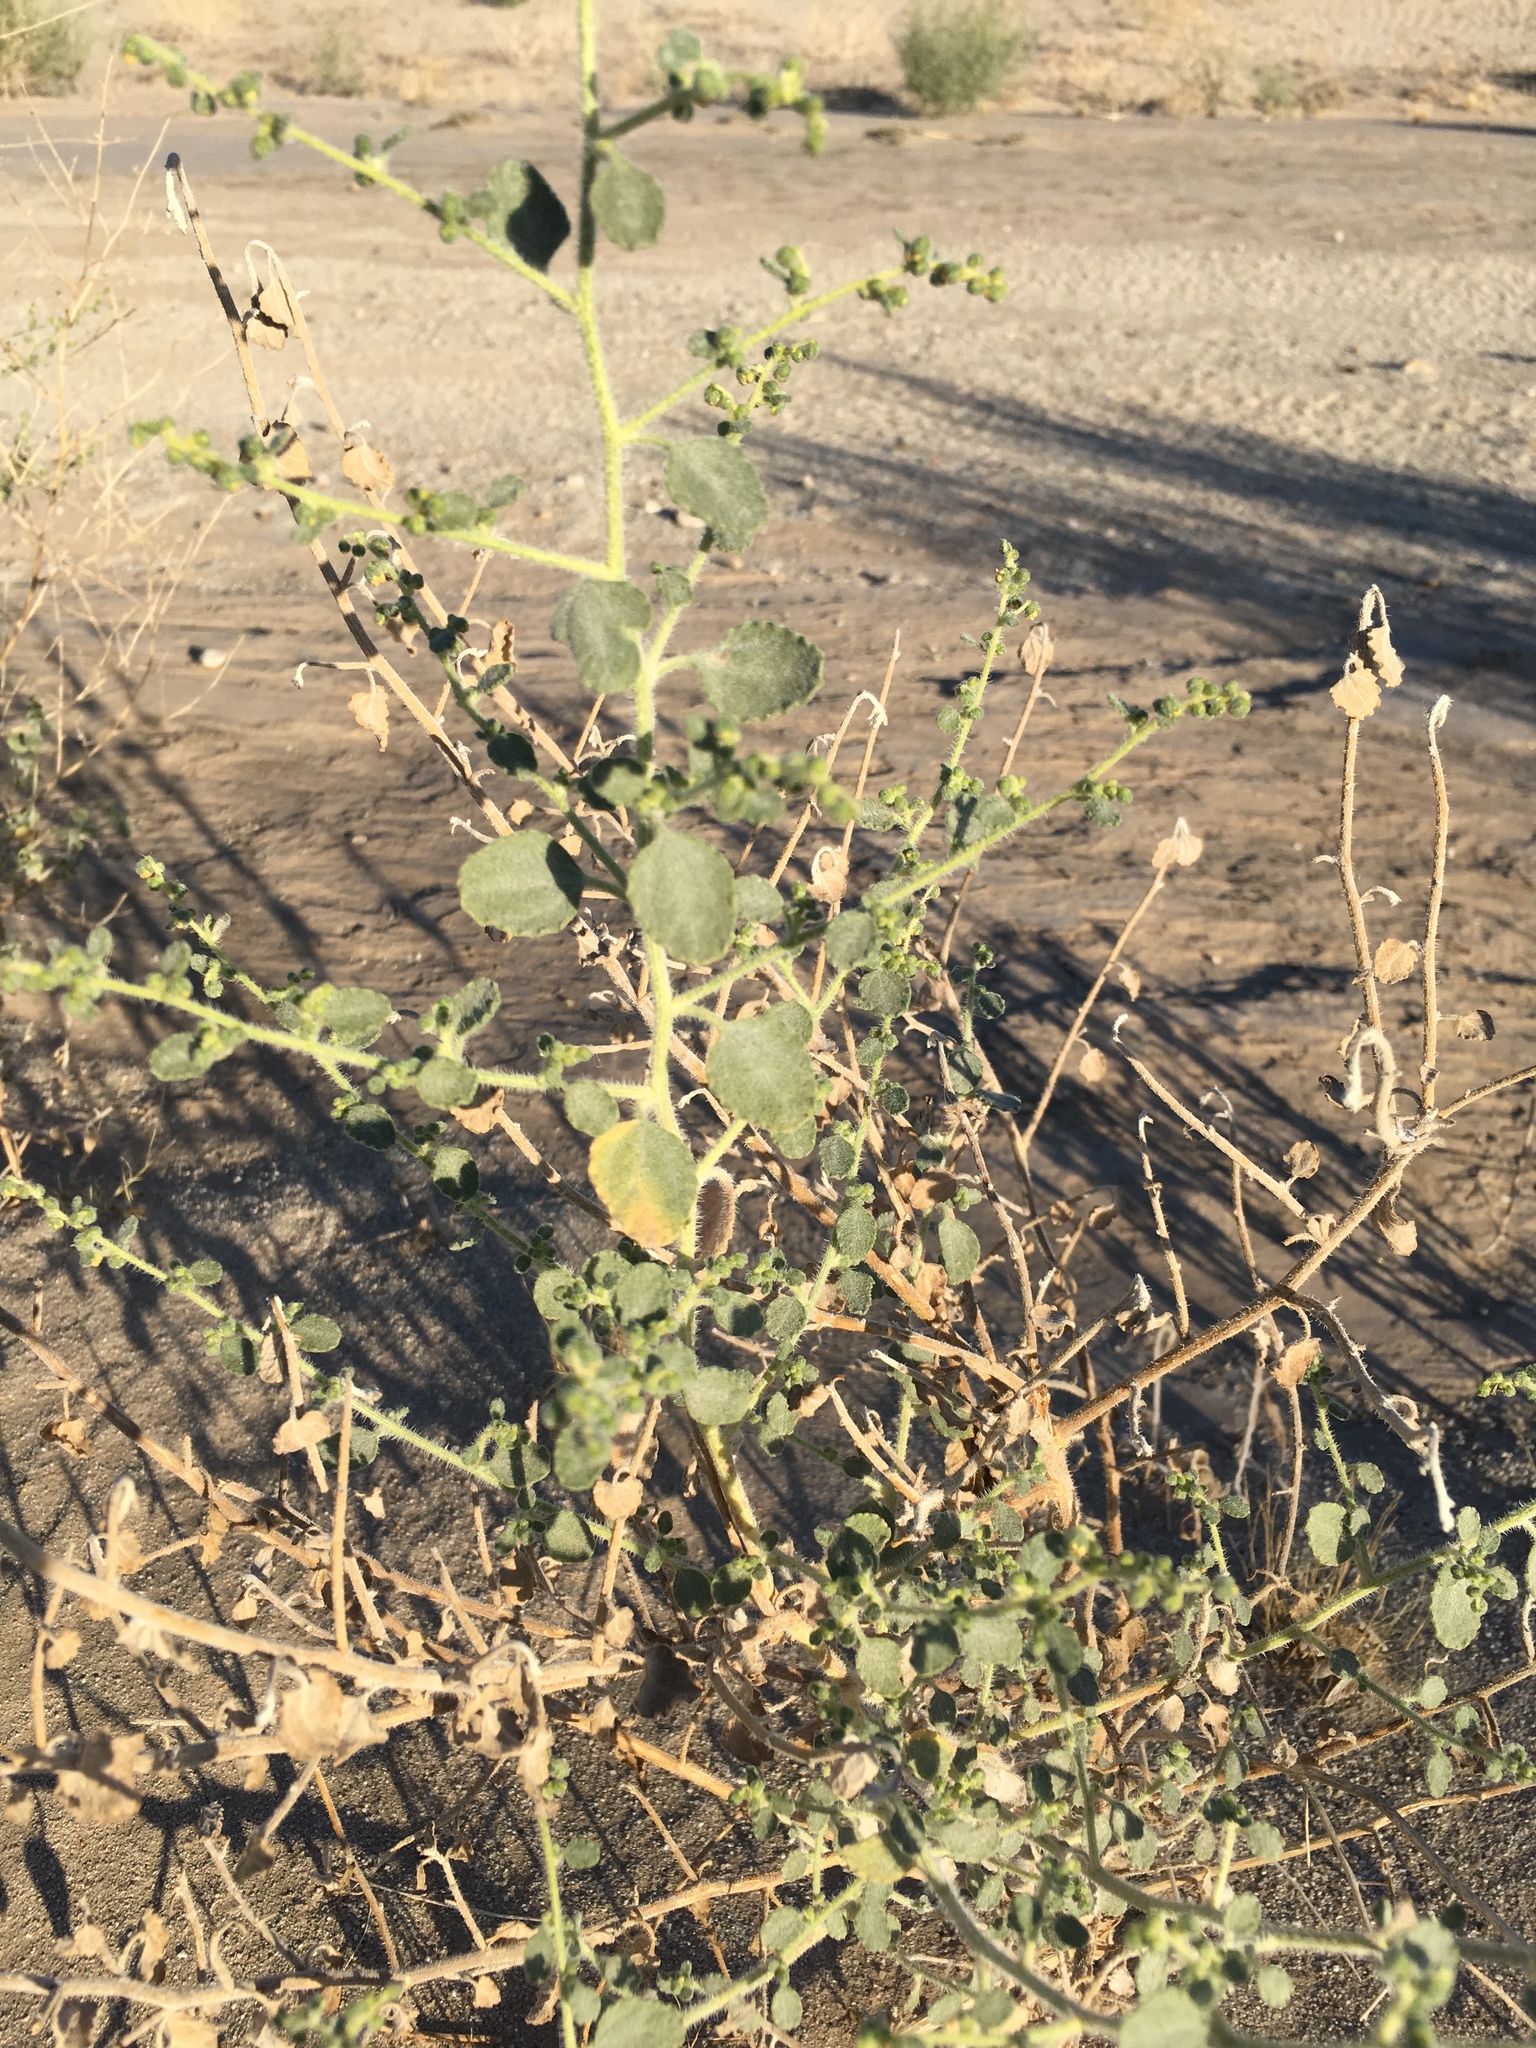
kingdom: Plantae
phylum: Tracheophyta
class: Magnoliopsida
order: Asterales
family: Asteraceae
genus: Dicoria
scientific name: Dicoria canescens
